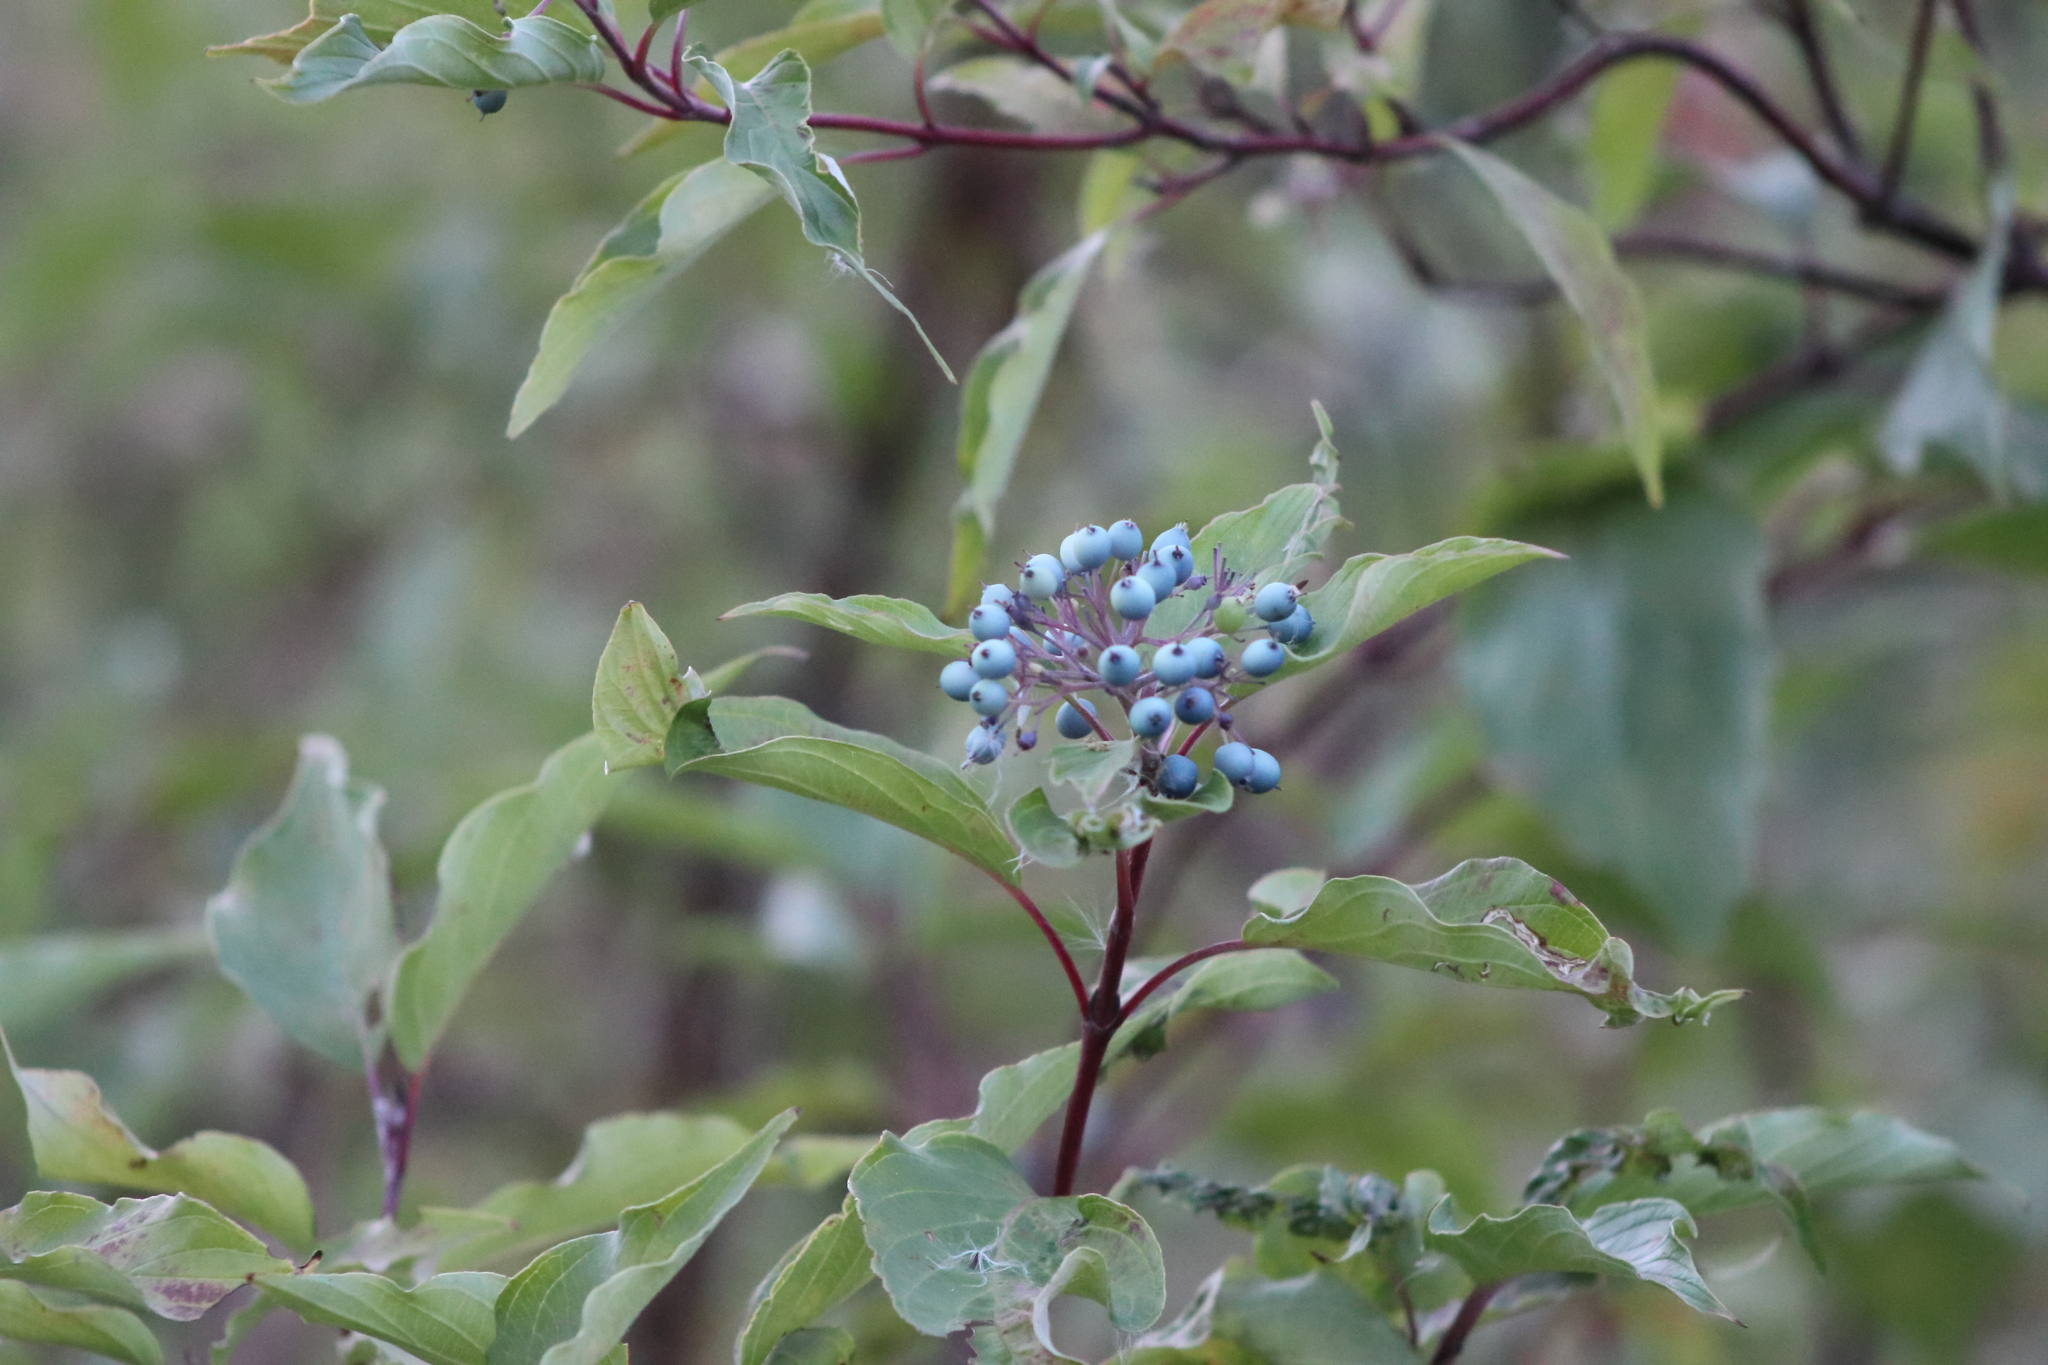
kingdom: Plantae
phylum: Tracheophyta
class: Magnoliopsida
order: Cornales
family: Cornaceae
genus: Cornus
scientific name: Cornus sericea
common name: Red-osier dogwood
